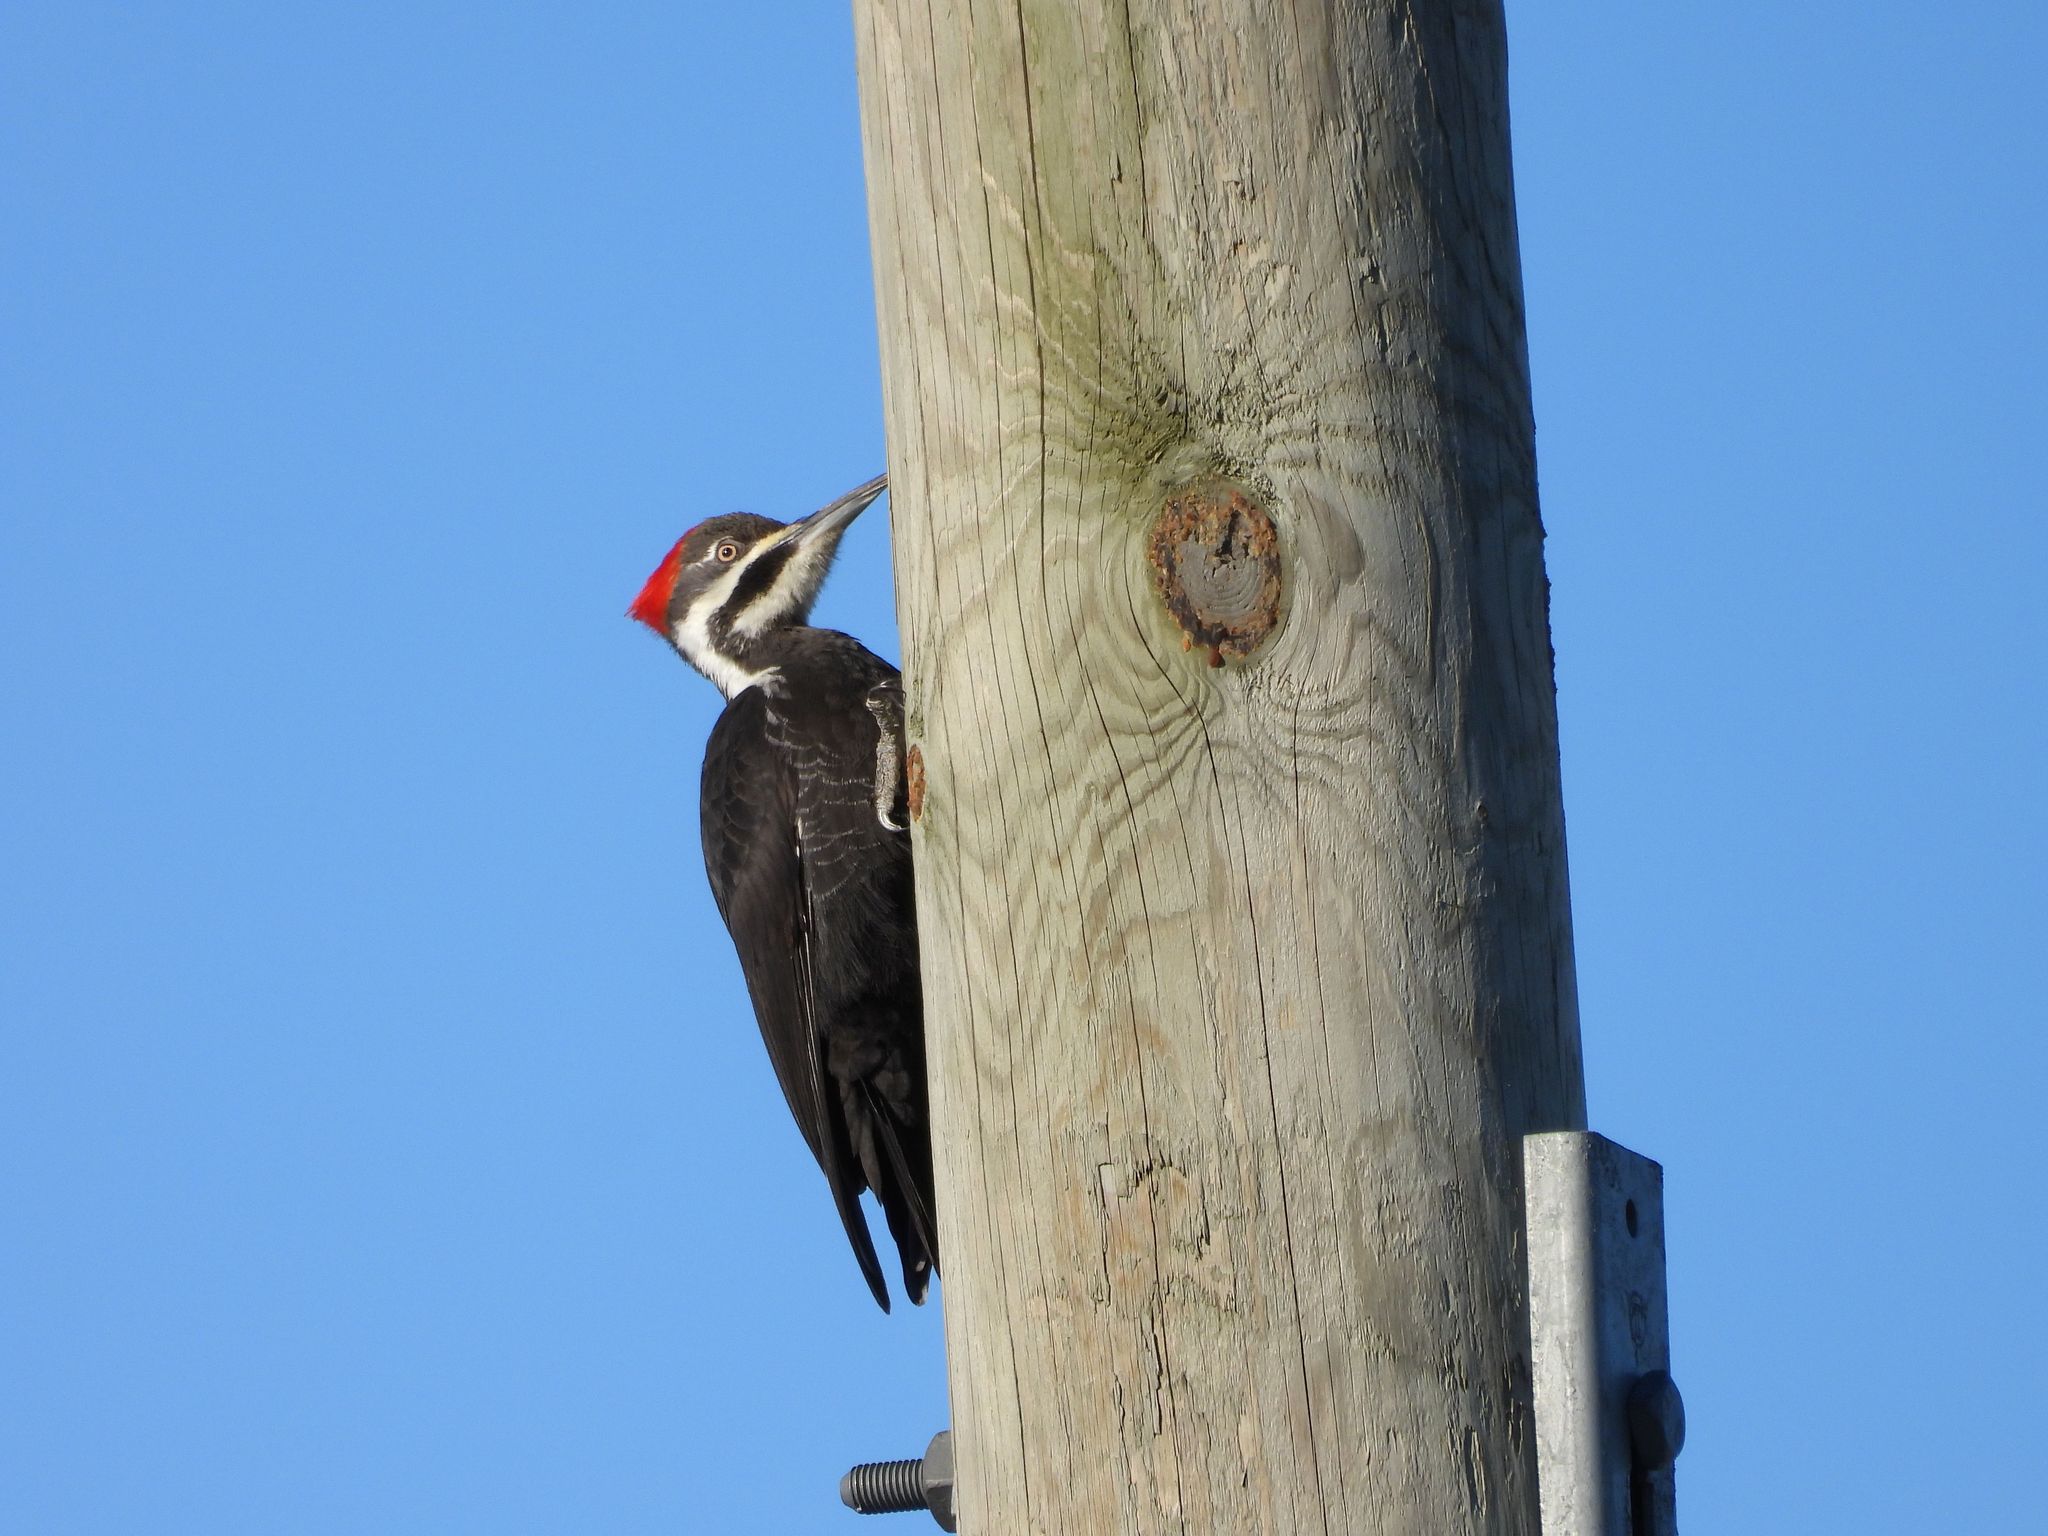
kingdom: Animalia
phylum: Chordata
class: Aves
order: Piciformes
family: Picidae
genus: Dryocopus
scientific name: Dryocopus pileatus
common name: Pileated woodpecker
